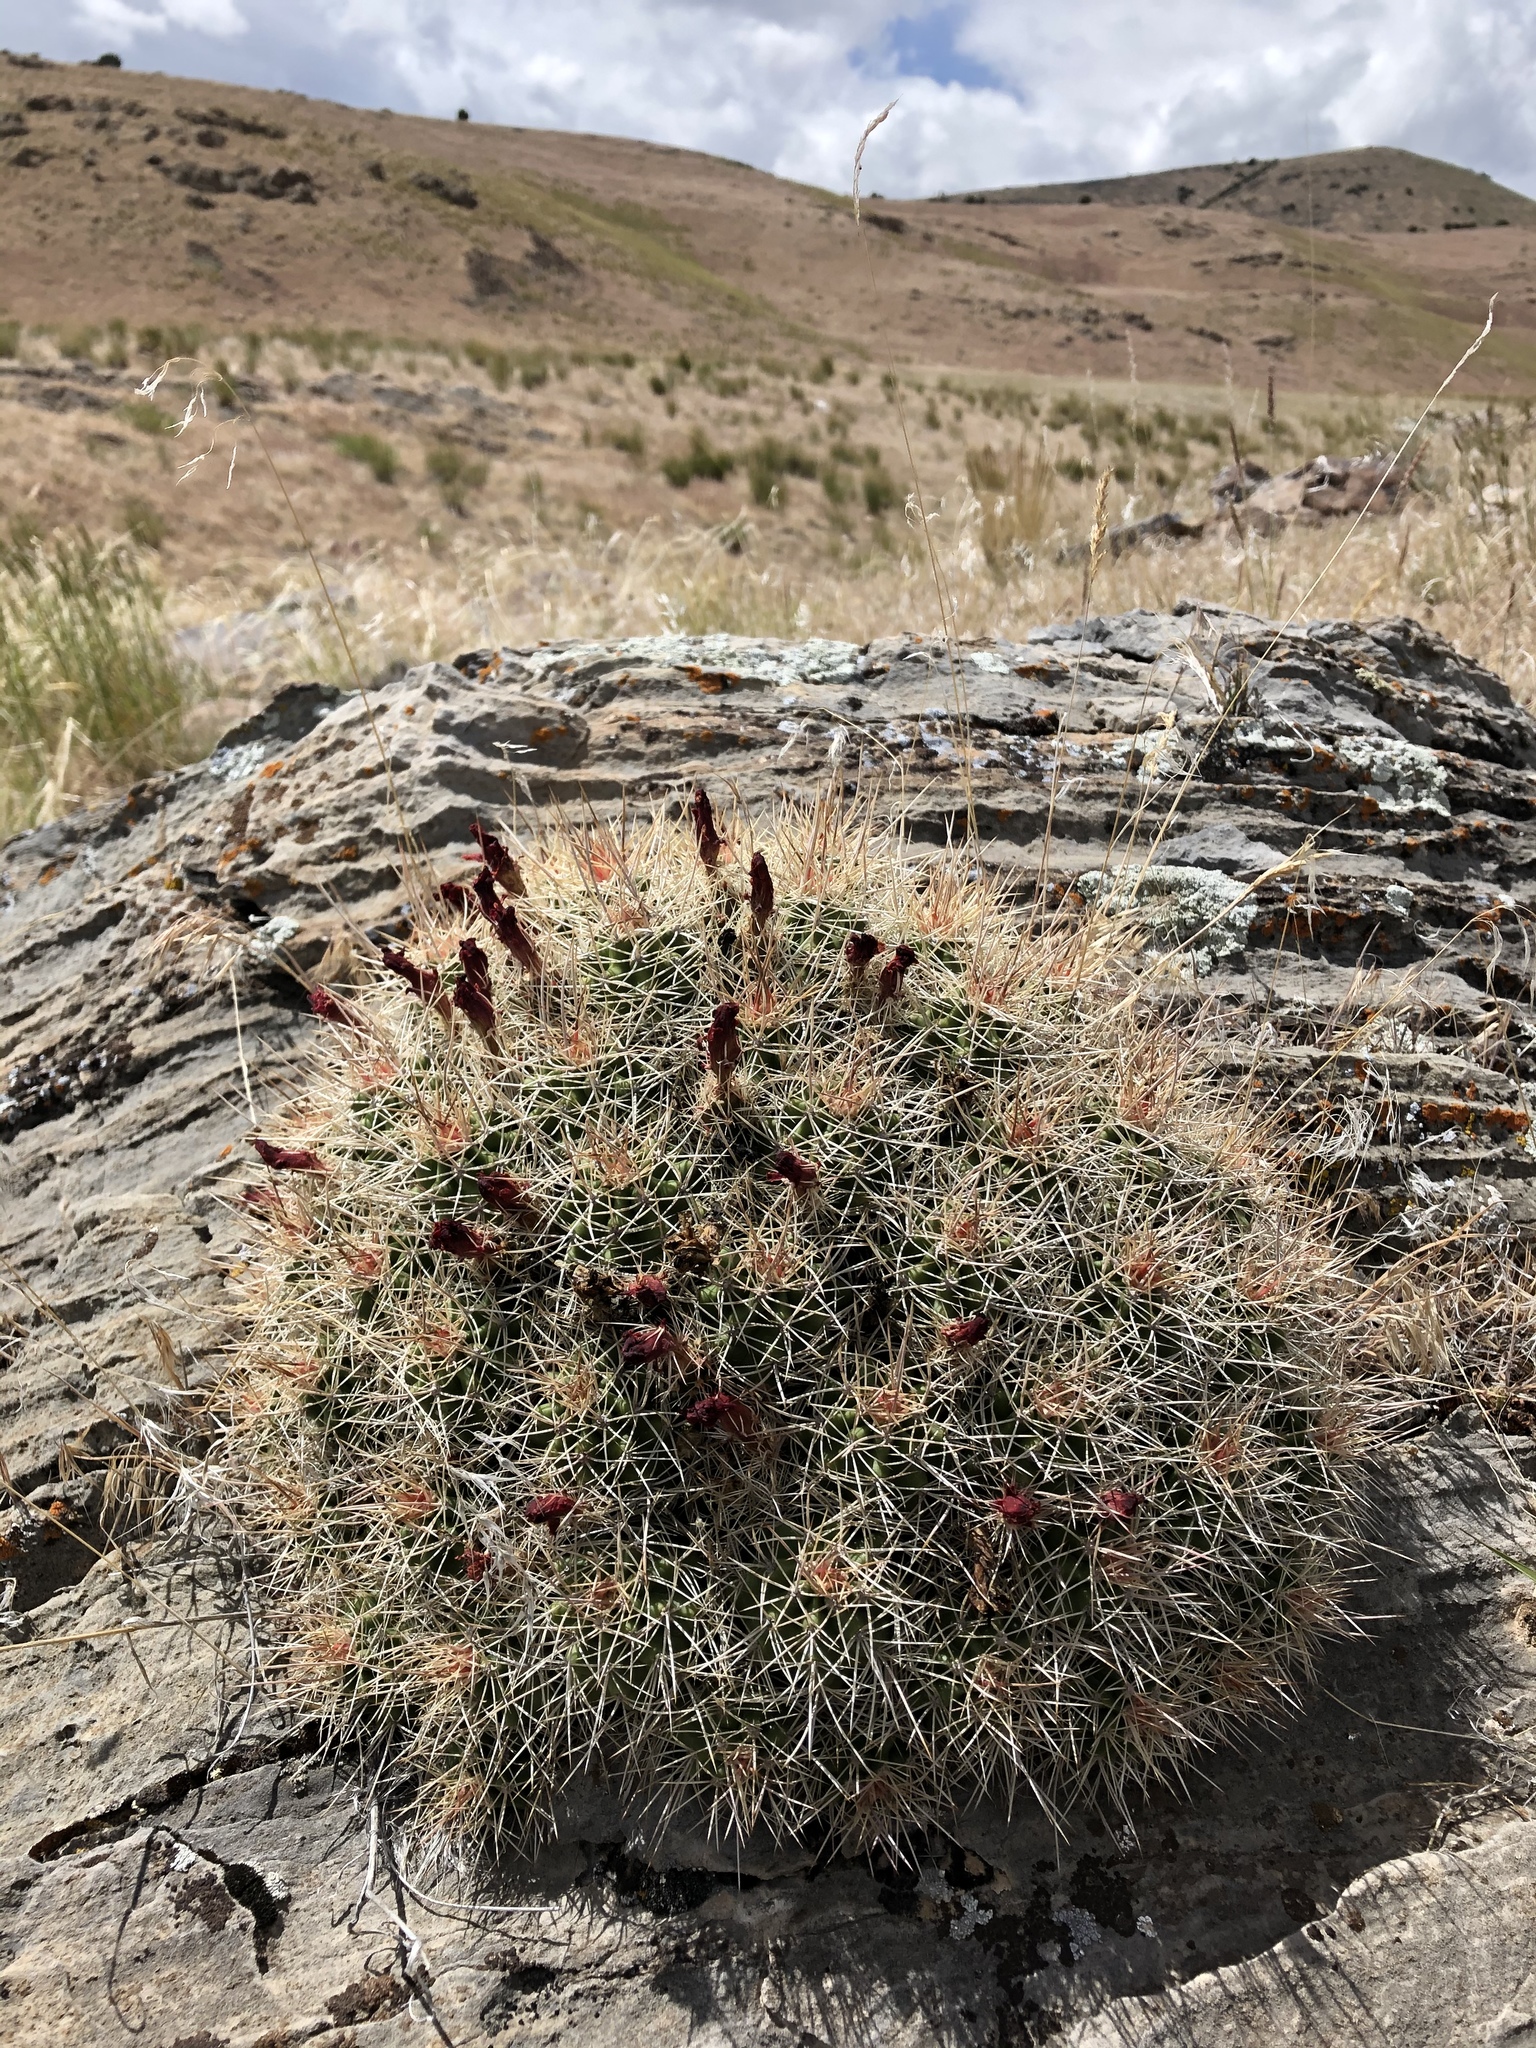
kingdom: Plantae
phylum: Tracheophyta
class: Magnoliopsida
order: Caryophyllales
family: Cactaceae
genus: Echinocereus
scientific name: Echinocereus triglochidiatus
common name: Claretcup hedgehog
